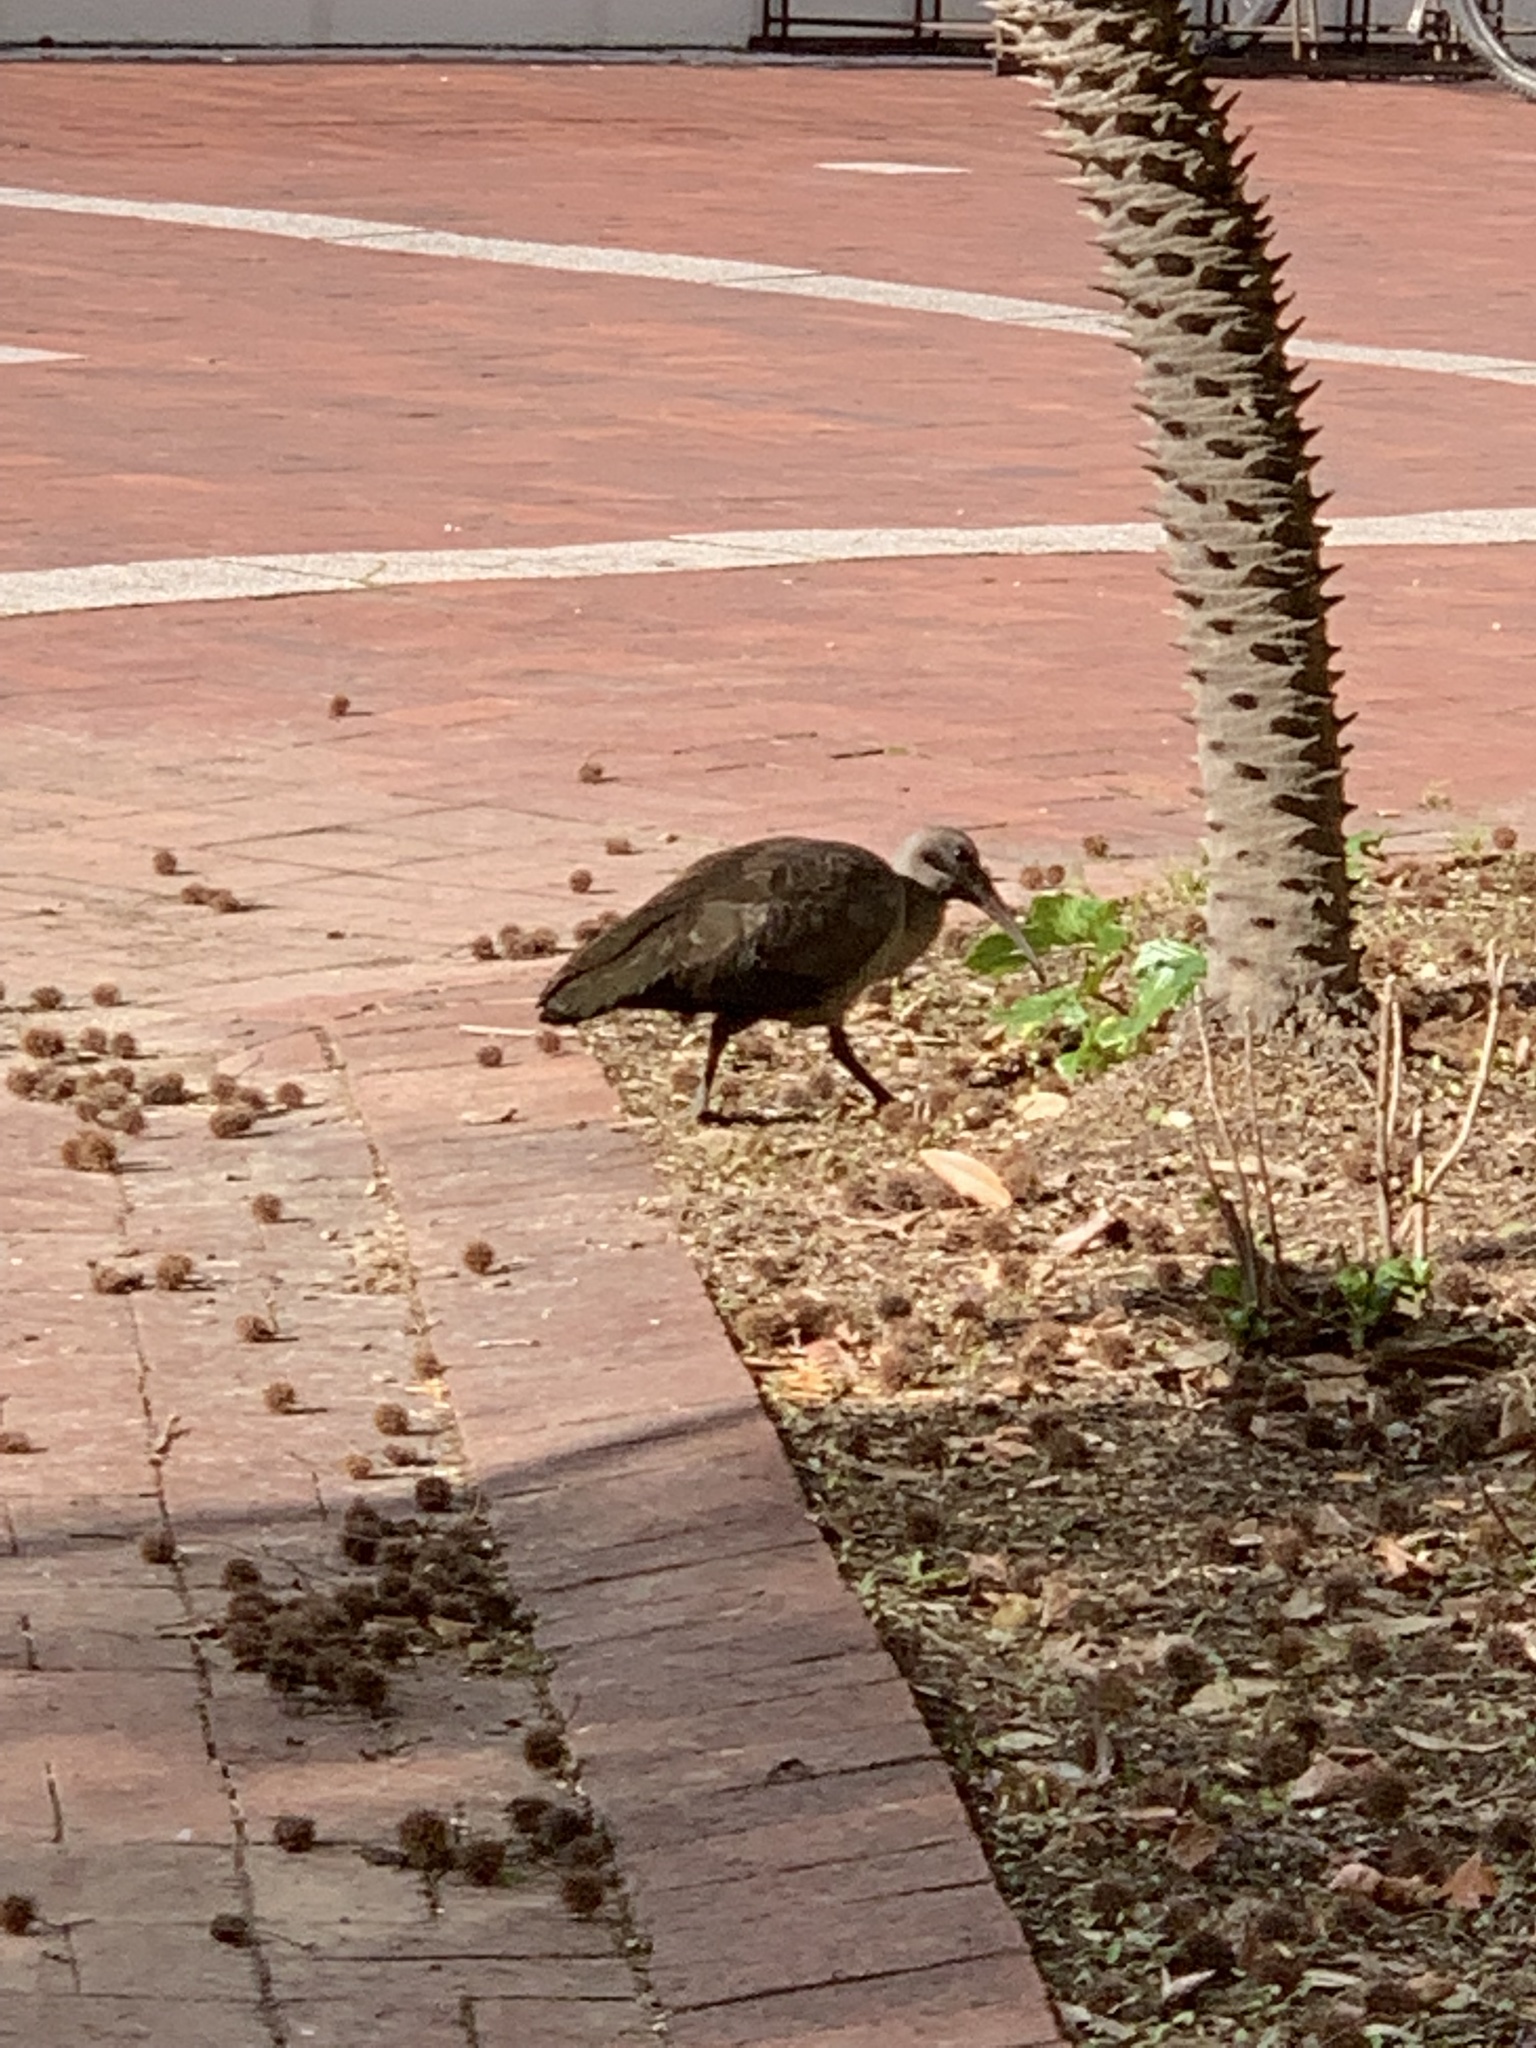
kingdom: Animalia
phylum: Chordata
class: Aves
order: Pelecaniformes
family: Threskiornithidae
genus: Bostrychia
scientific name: Bostrychia hagedash
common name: Hadada ibis
